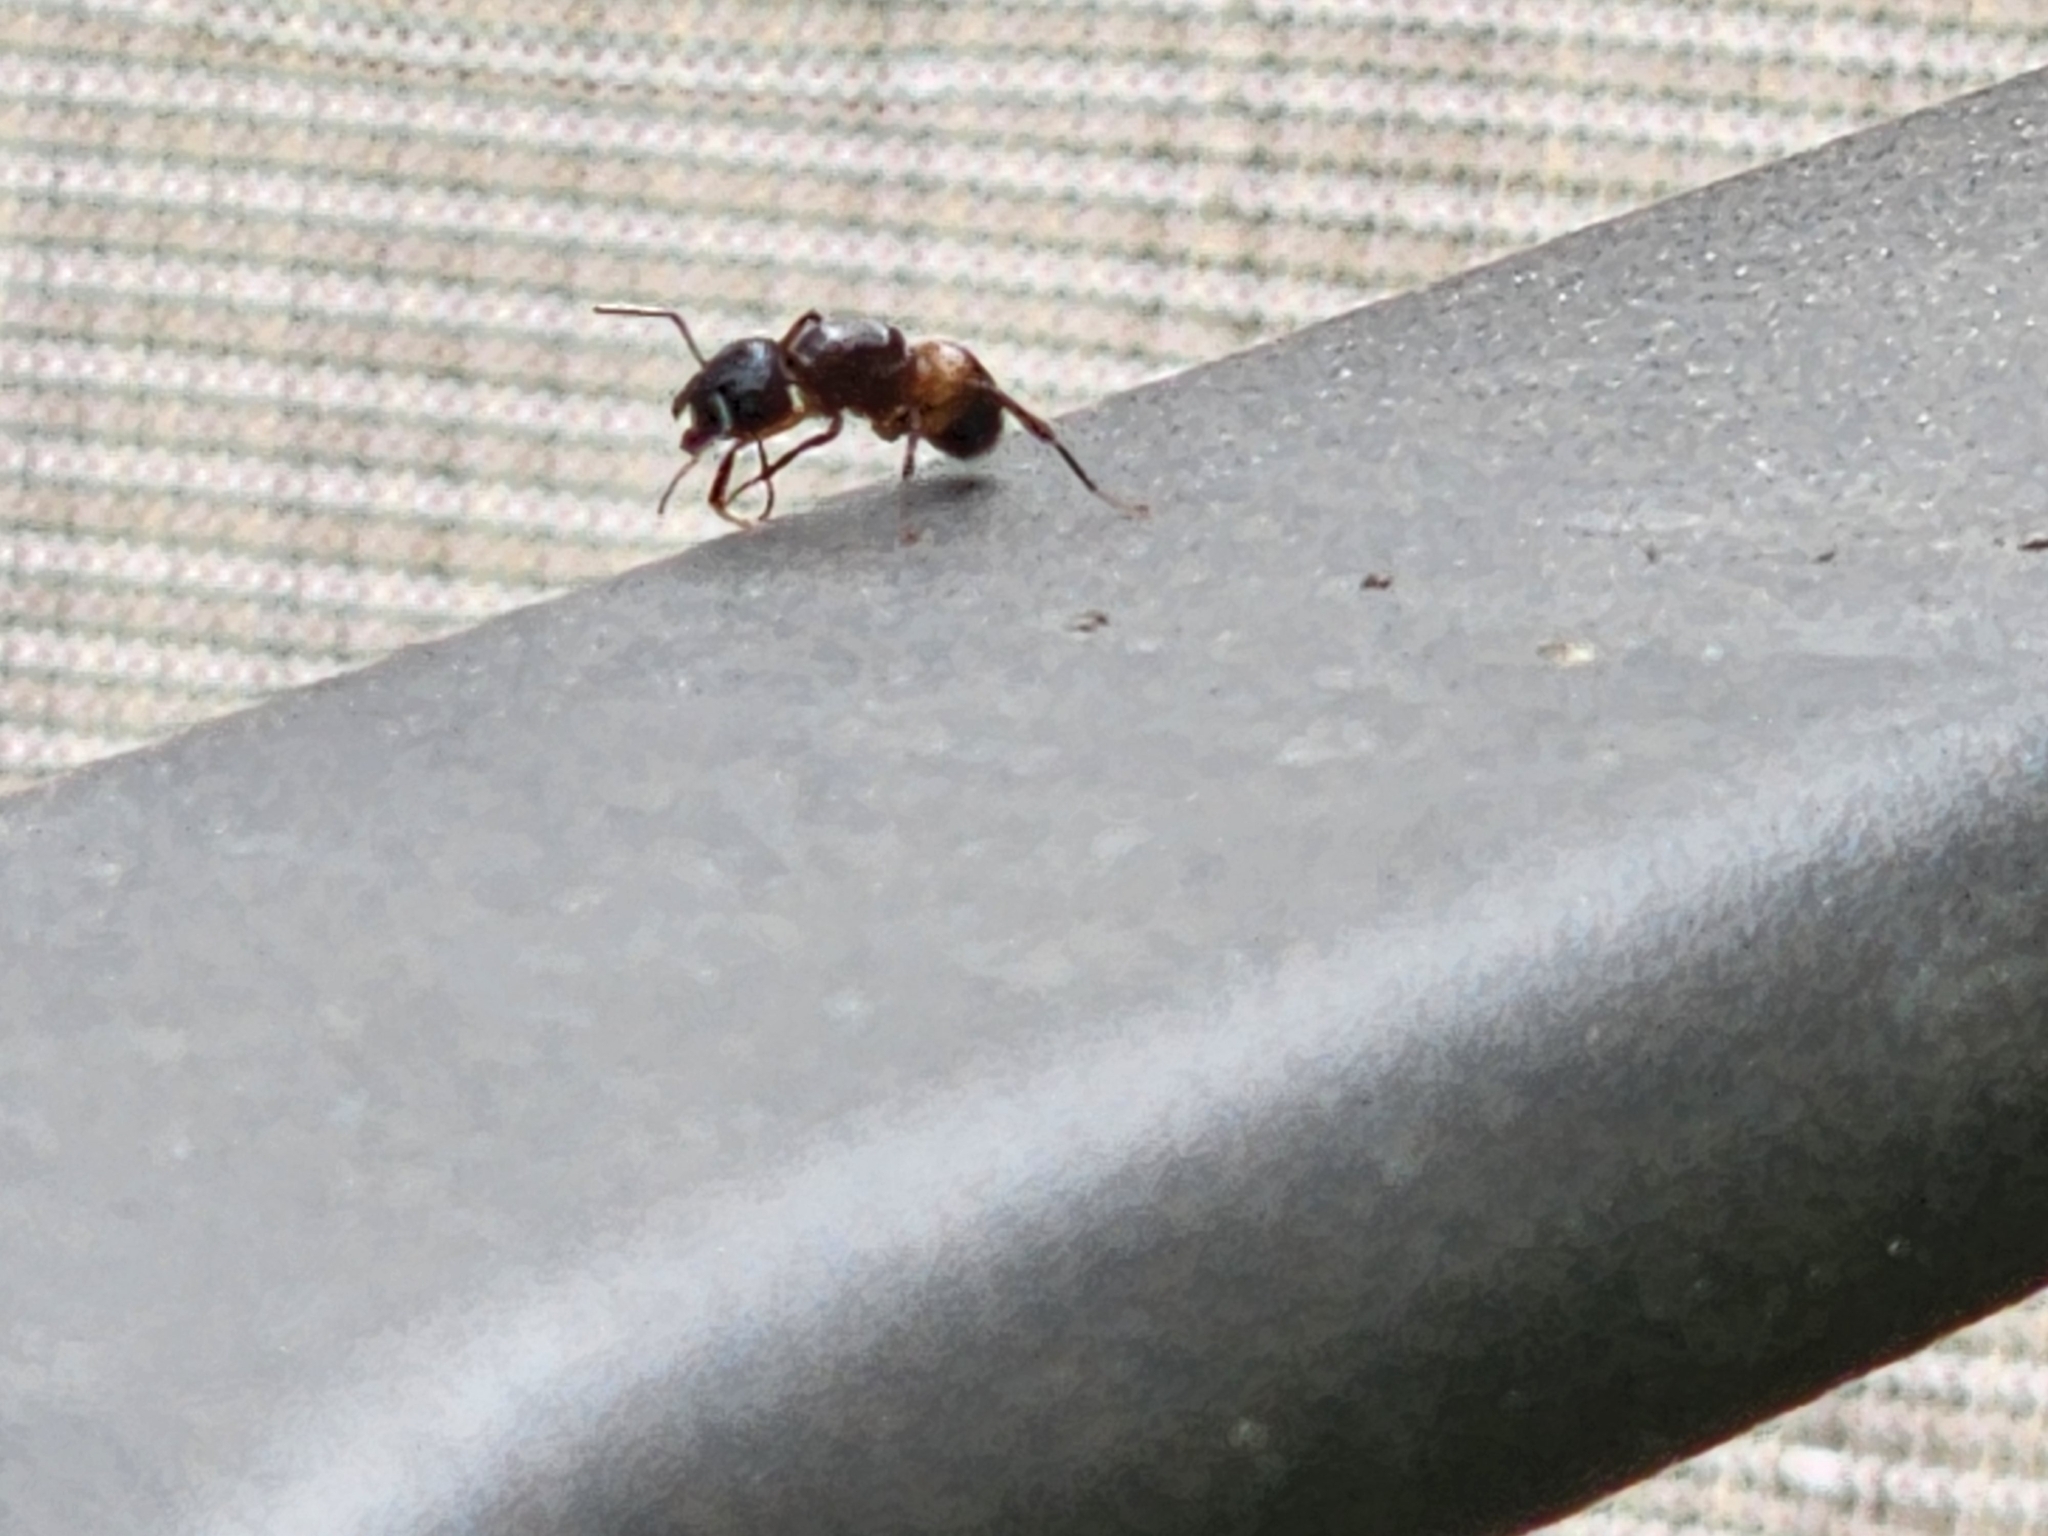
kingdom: Animalia
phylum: Arthropoda
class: Insecta
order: Hymenoptera
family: Formicidae
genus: Camponotus
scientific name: Camponotus chromaiodes
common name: Red carpenter ant
